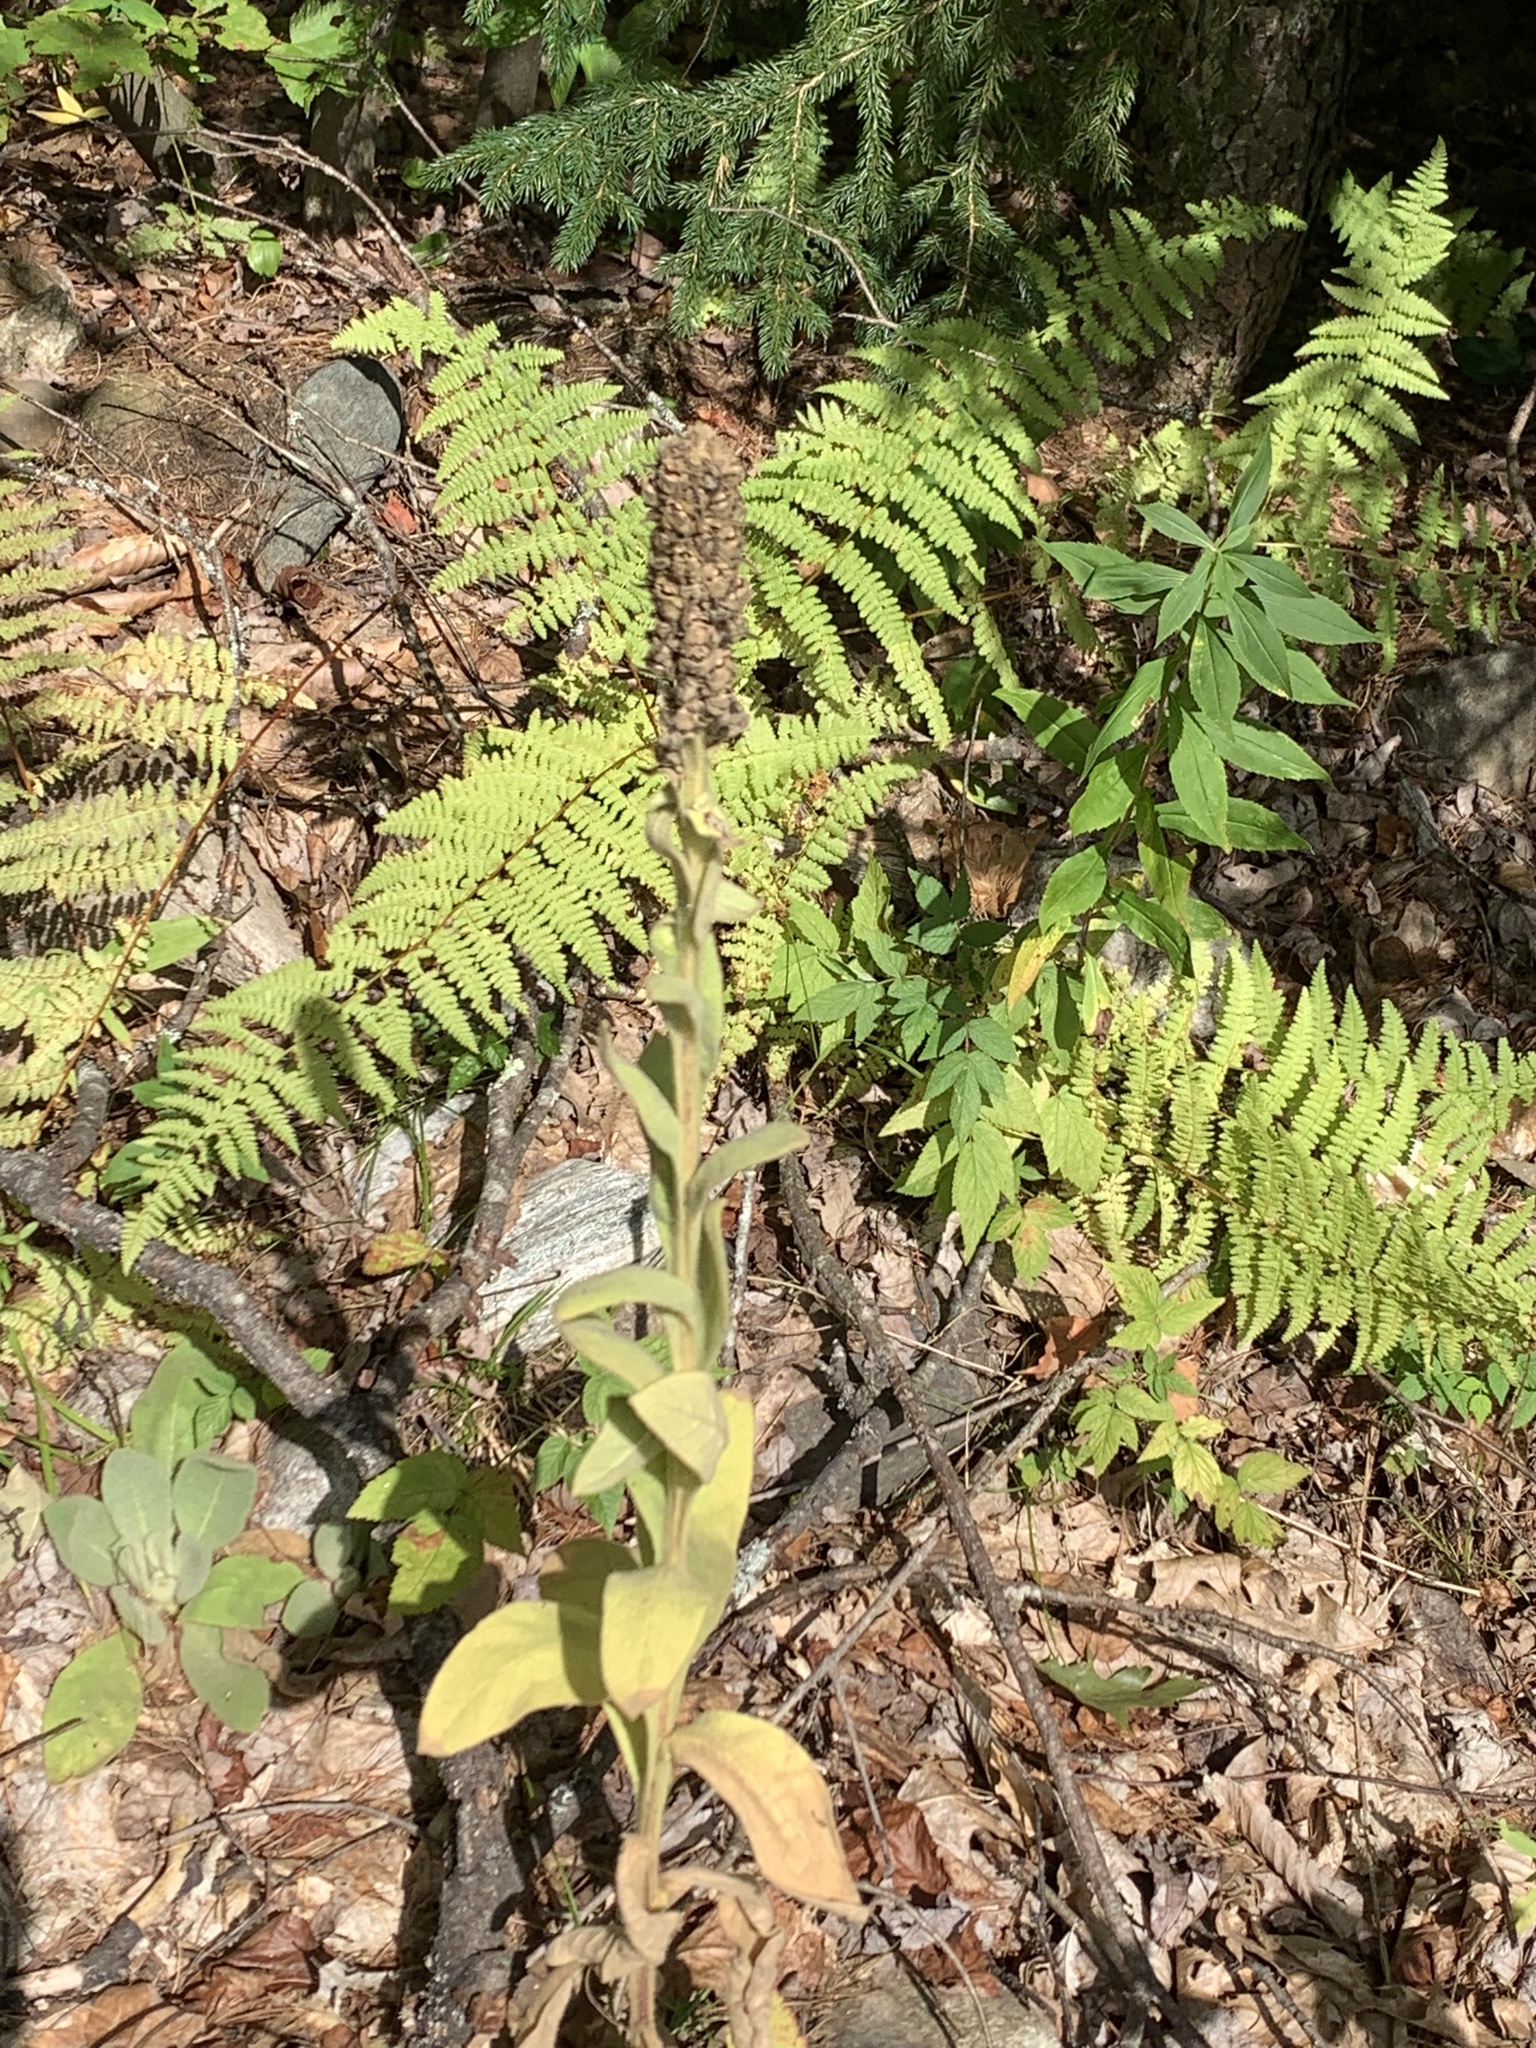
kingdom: Plantae
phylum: Tracheophyta
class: Magnoliopsida
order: Lamiales
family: Scrophulariaceae
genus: Verbascum
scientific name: Verbascum thapsus
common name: Common mullein
